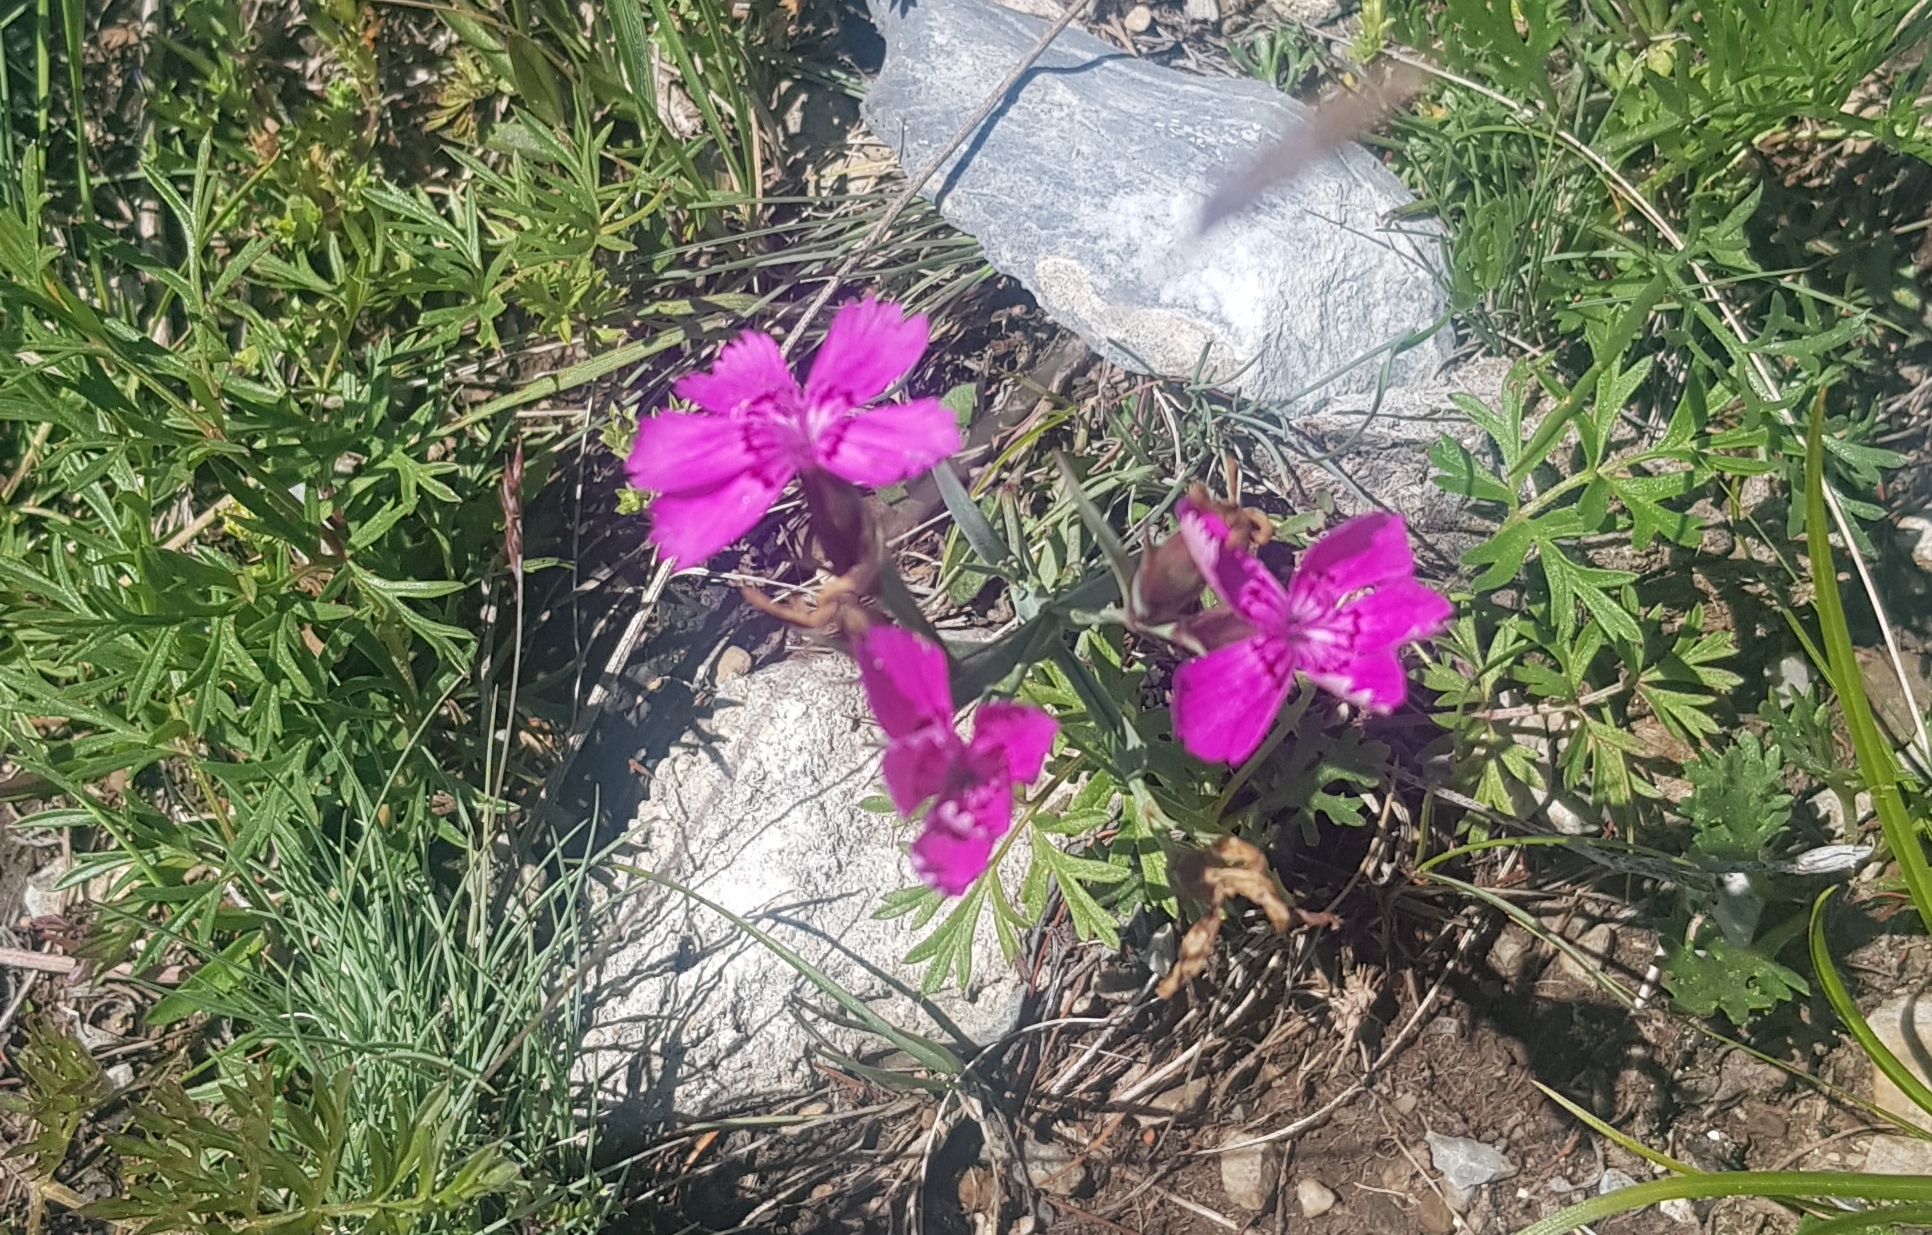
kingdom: Plantae
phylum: Tracheophyta
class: Magnoliopsida
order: Caryophyllales
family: Caryophyllaceae
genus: Dianthus
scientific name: Dianthus chinensis
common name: Rainbow pink
